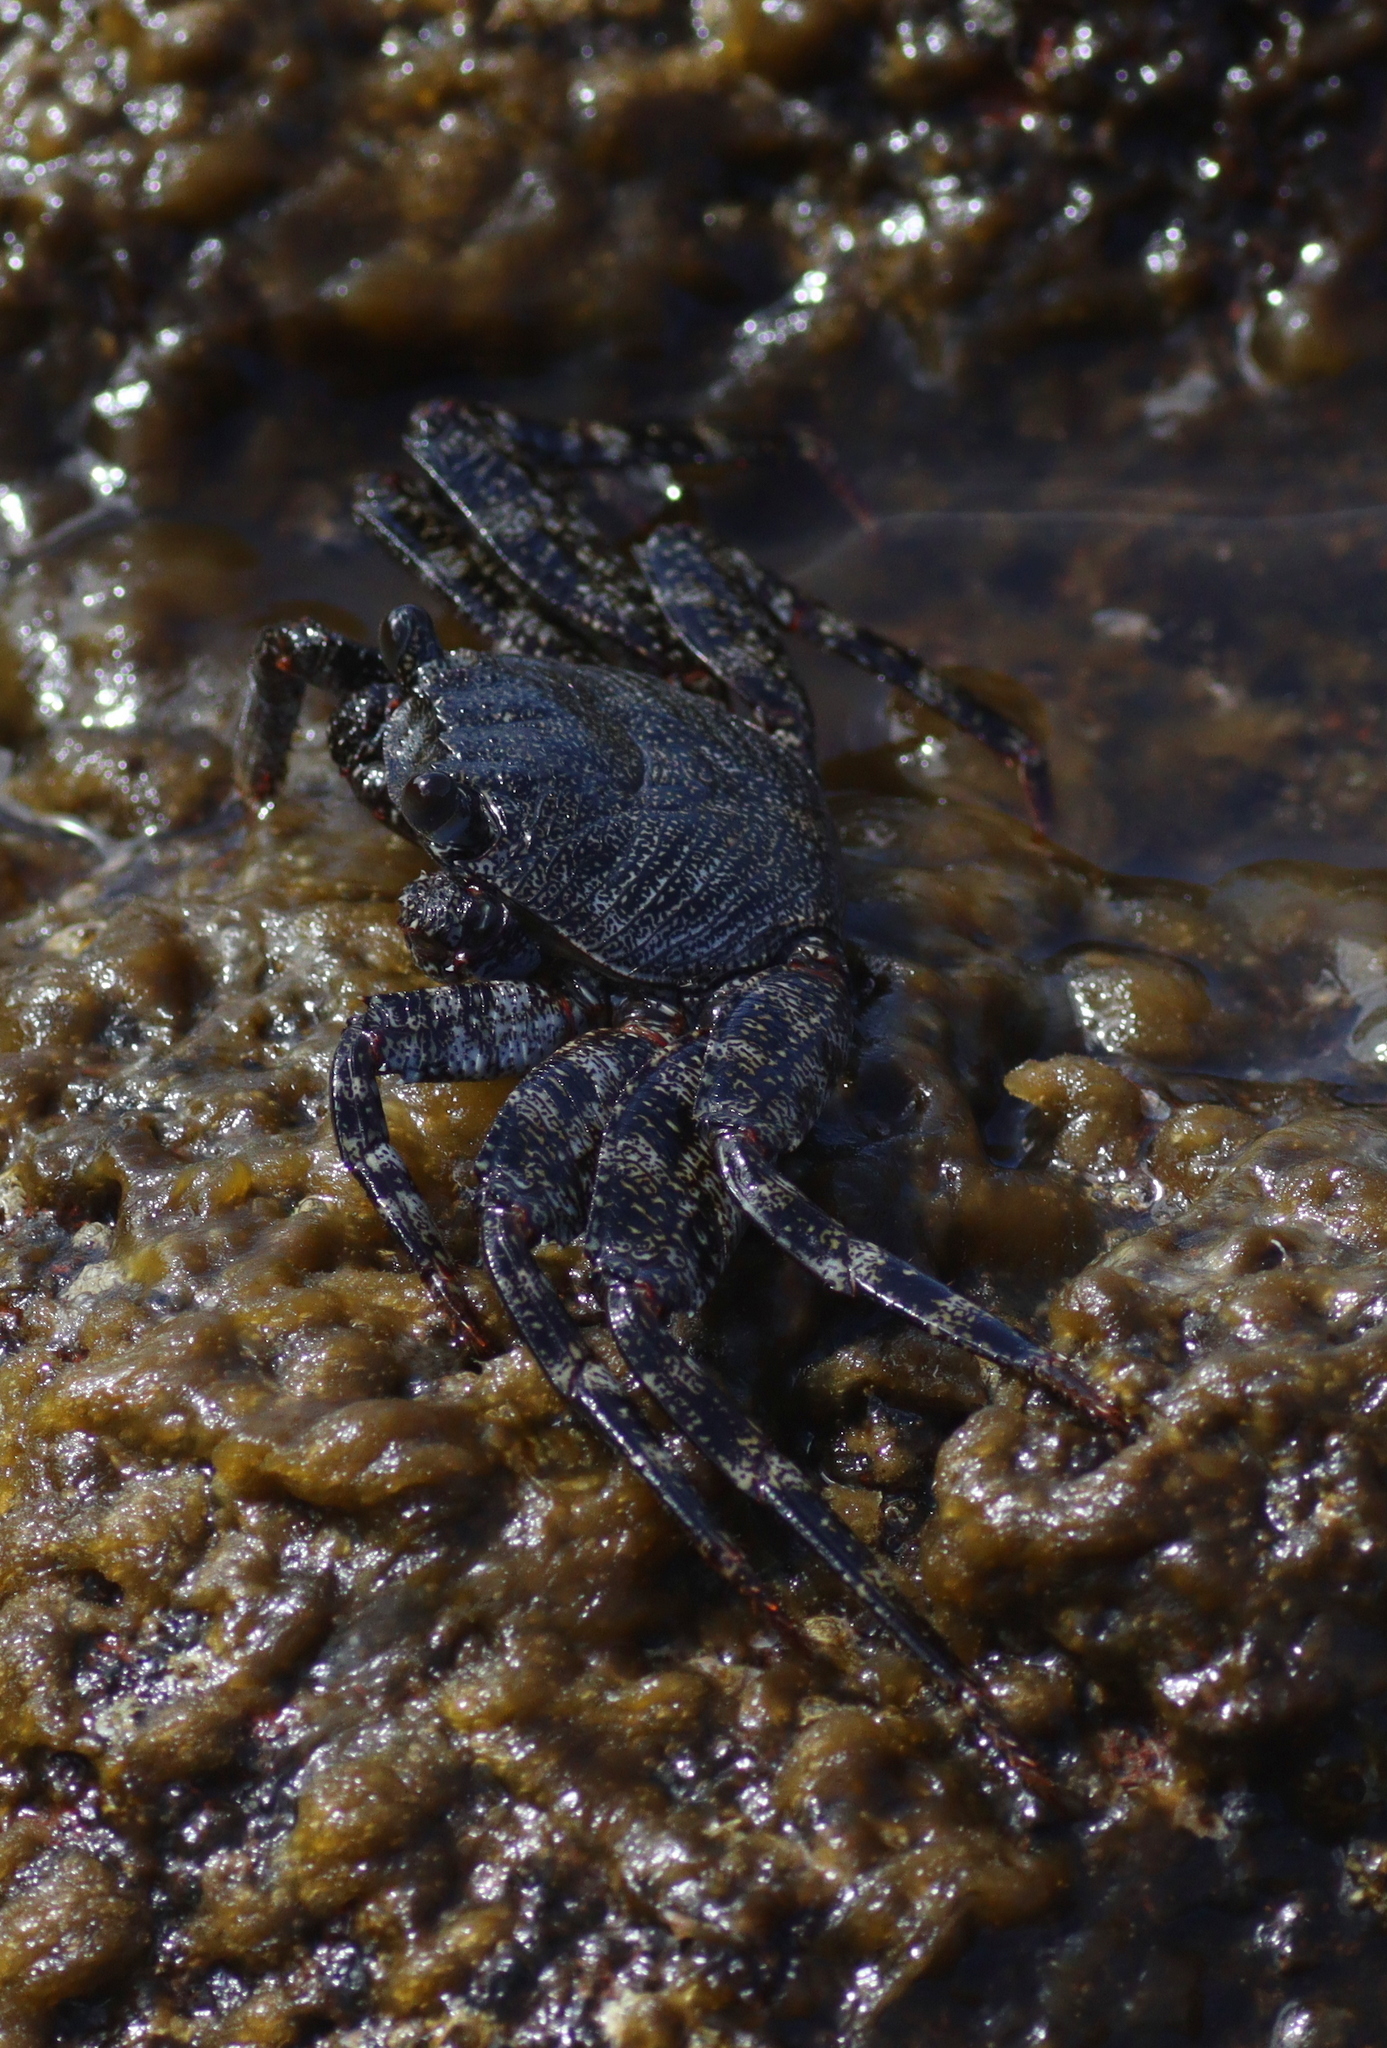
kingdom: Animalia
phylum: Arthropoda
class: Malacostraca
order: Decapoda
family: Grapsidae
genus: Grapsus
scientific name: Grapsus adscensionis
